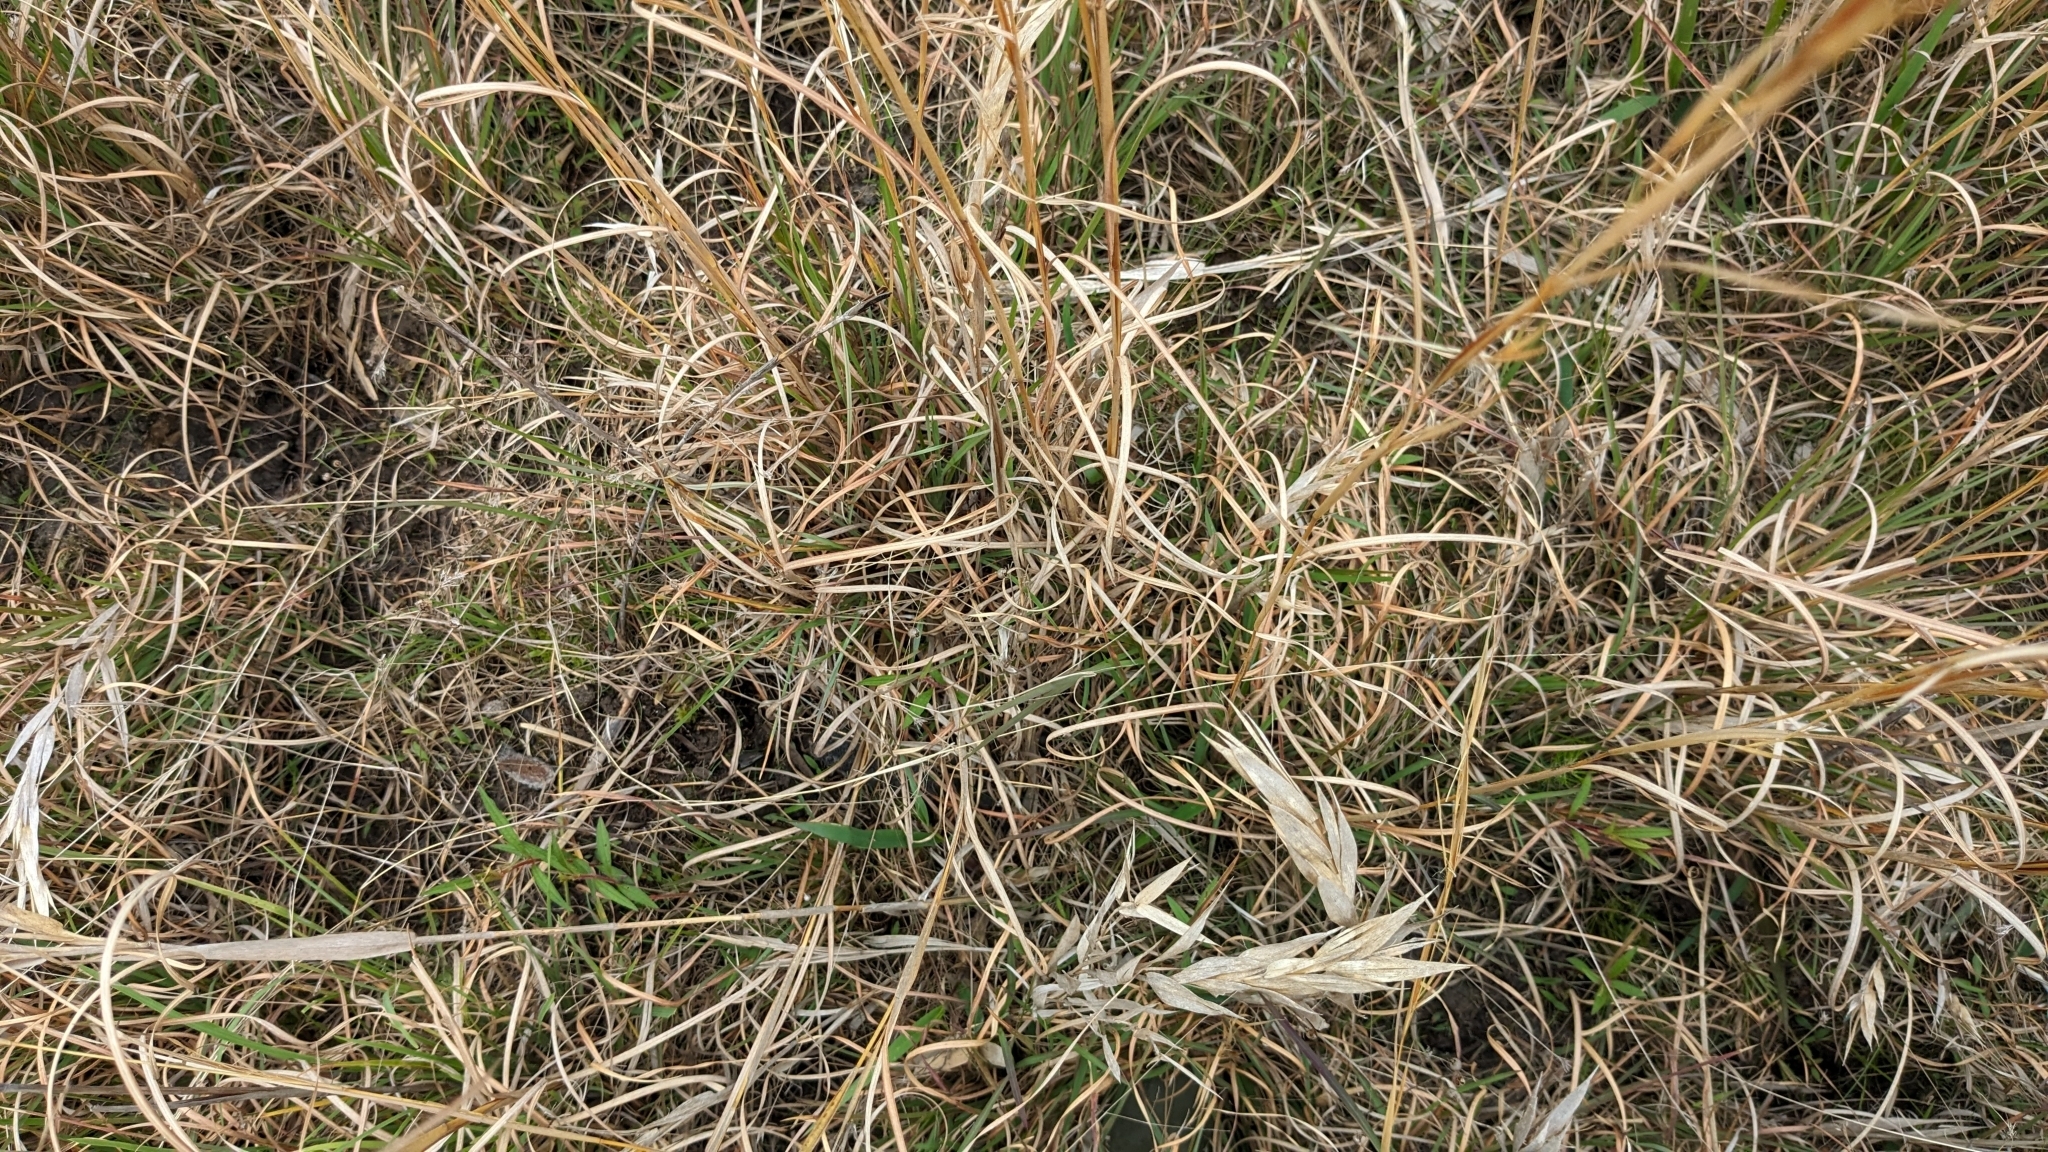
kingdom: Plantae
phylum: Tracheophyta
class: Liliopsida
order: Poales
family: Poaceae
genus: Andropogon
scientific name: Andropogon virginicus
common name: Broomsedge bluestem
